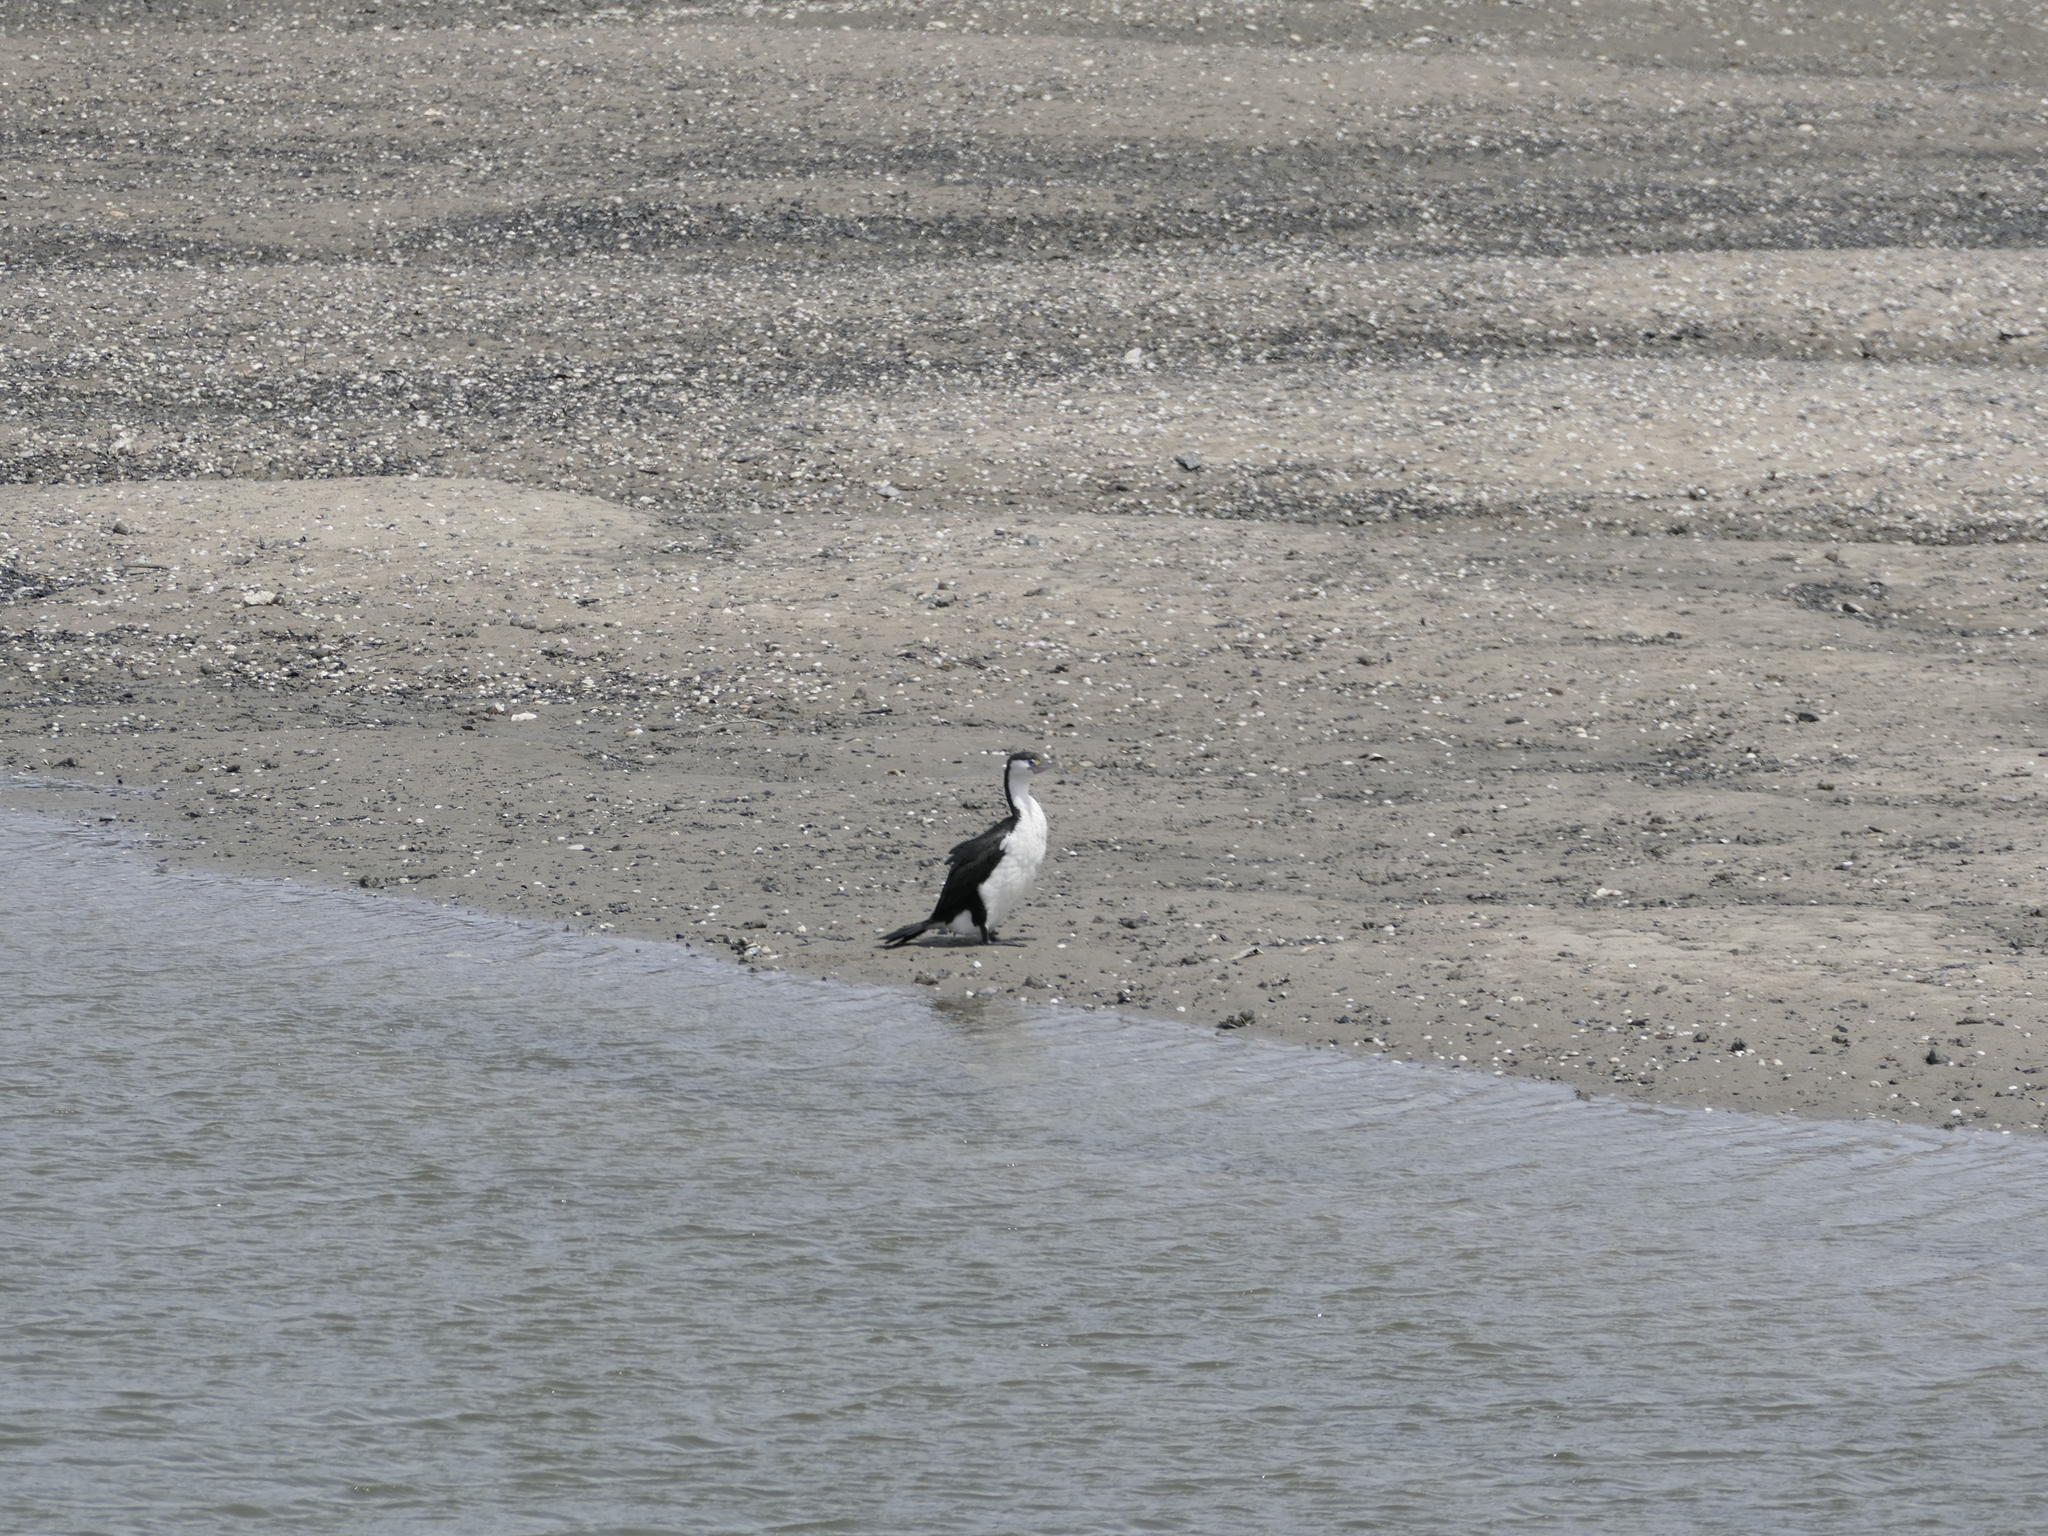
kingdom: Animalia
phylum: Chordata
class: Aves
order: Suliformes
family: Phalacrocoracidae
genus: Phalacrocorax
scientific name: Phalacrocorax varius
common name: Pied cormorant
